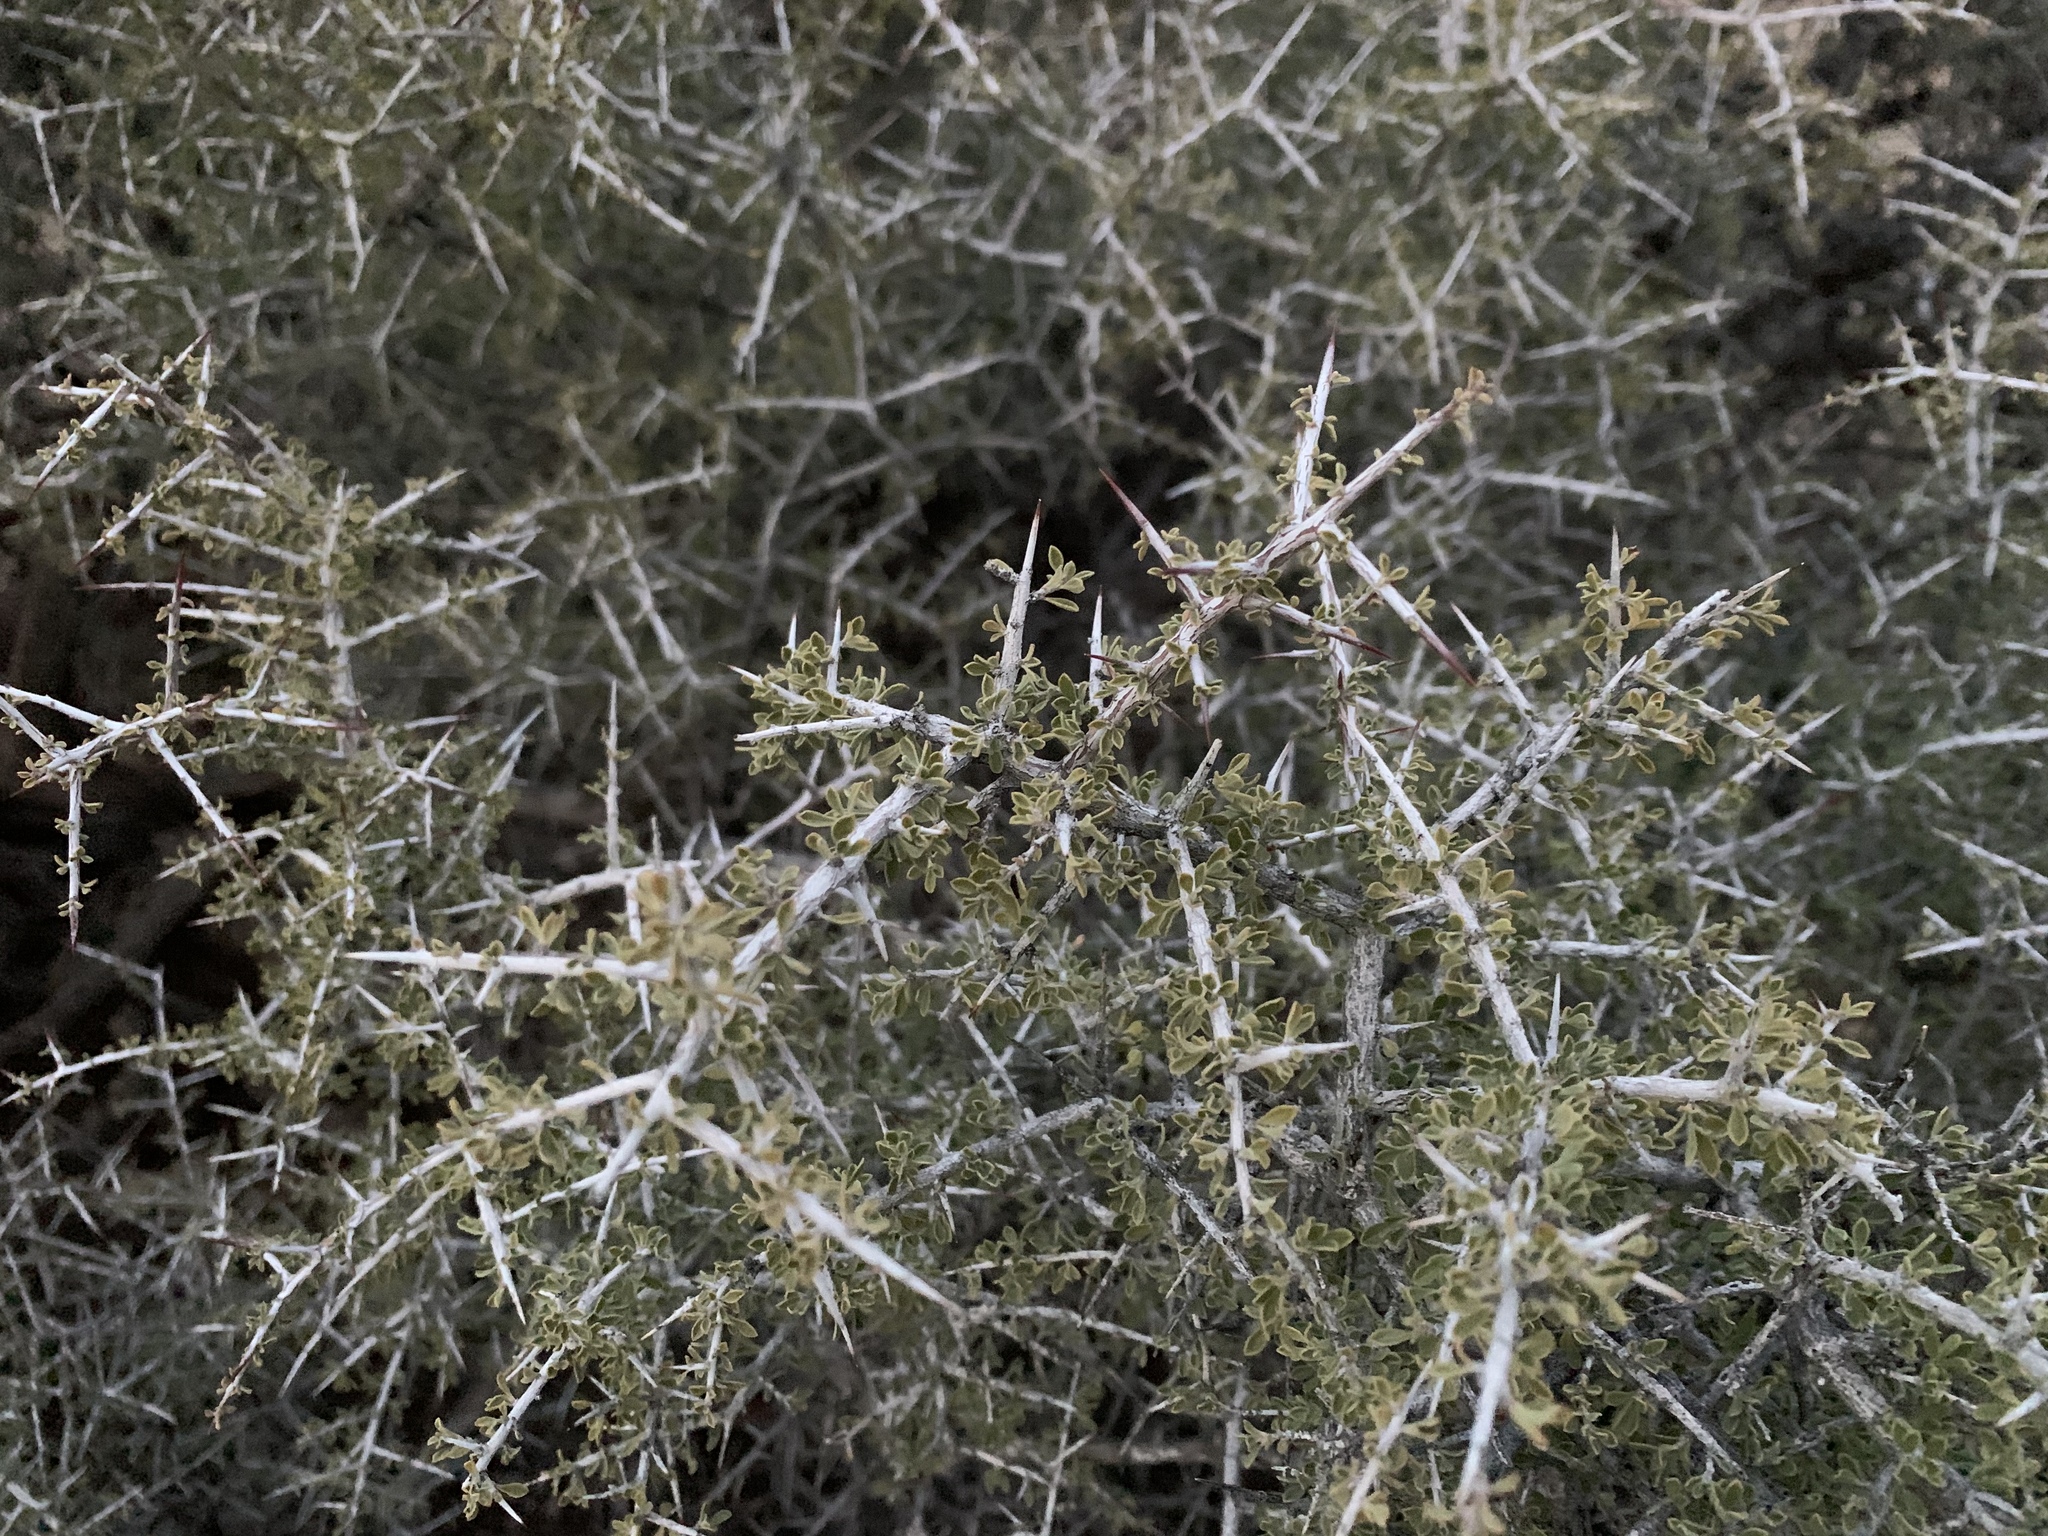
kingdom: Plantae
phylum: Tracheophyta
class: Magnoliopsida
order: Rosales
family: Rhamnaceae
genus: Condalia
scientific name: Condalia warnockii
